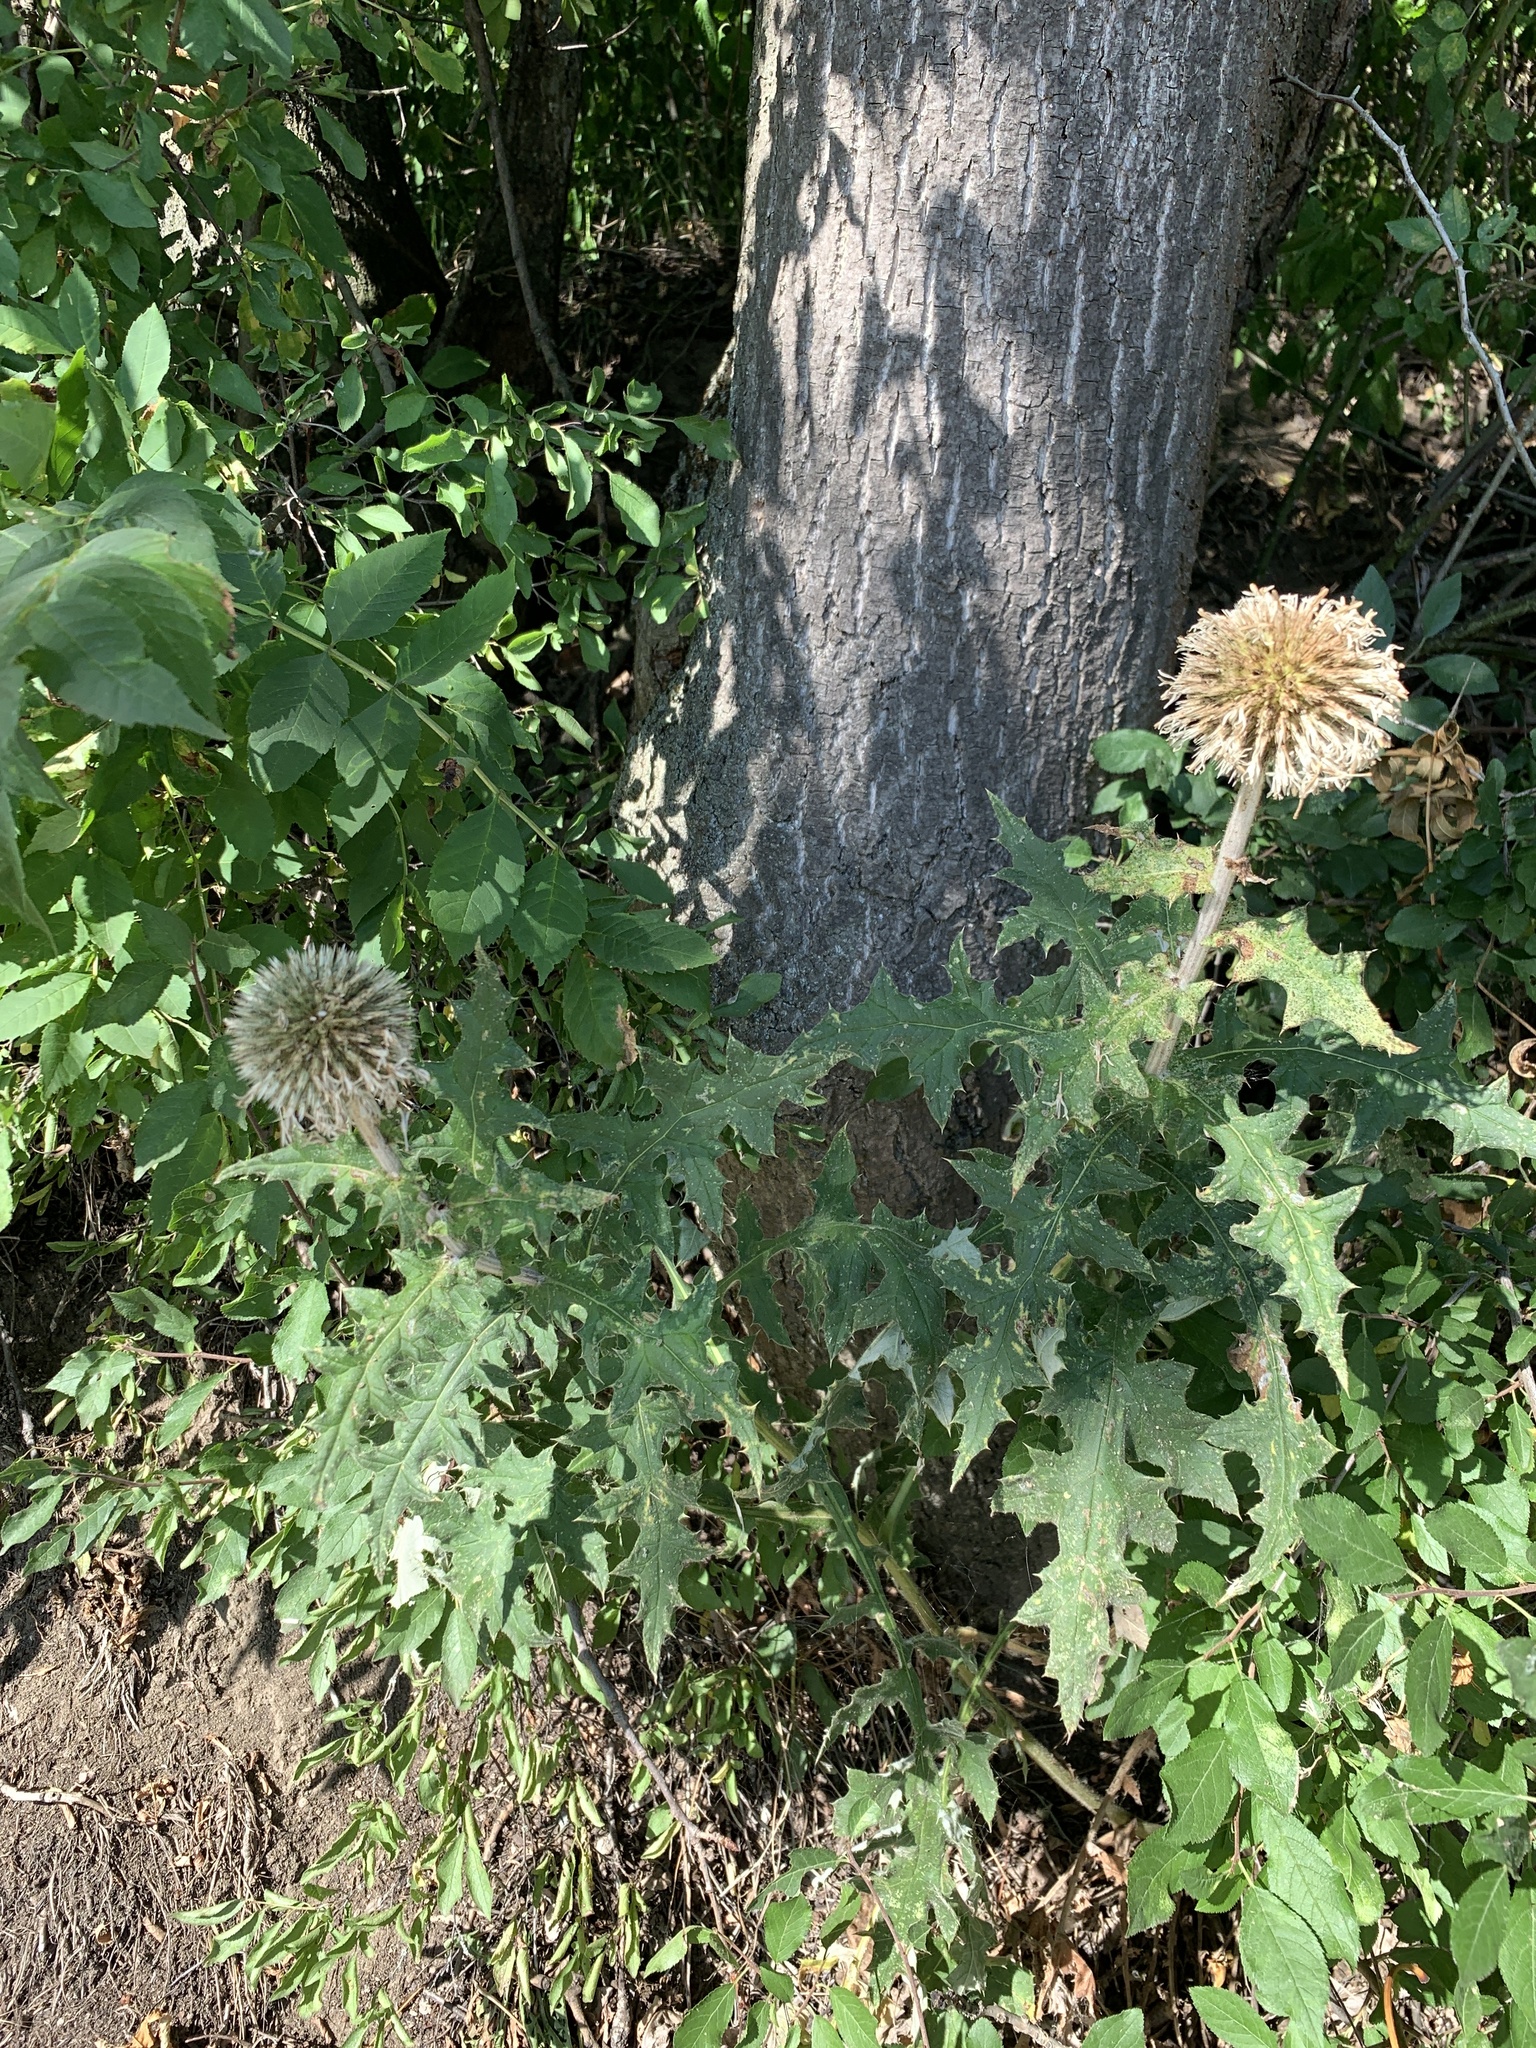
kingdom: Plantae
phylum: Tracheophyta
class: Magnoliopsida
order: Asterales
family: Asteraceae
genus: Echinops
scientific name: Echinops sphaerocephalus
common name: Glandular globe-thistle
